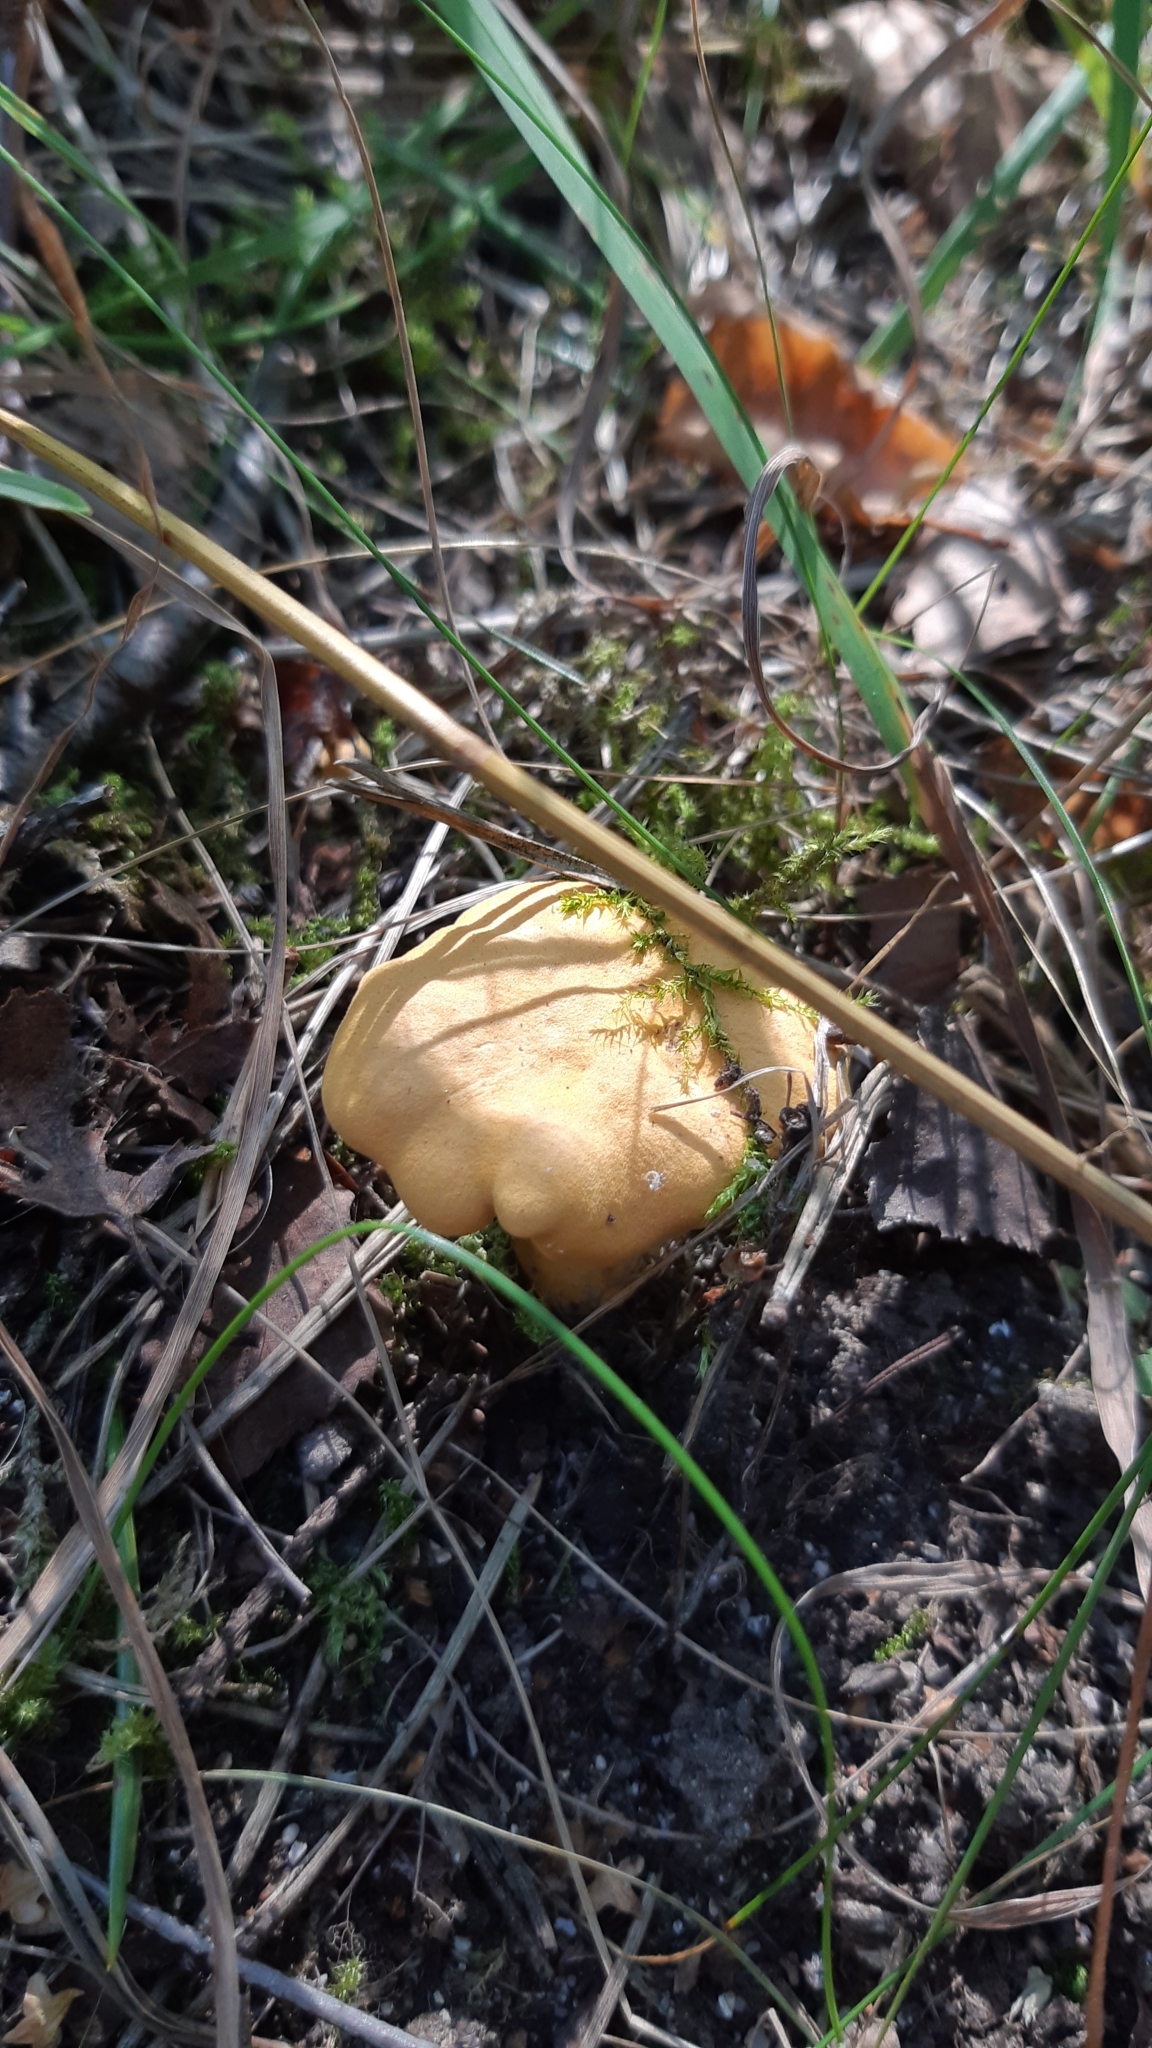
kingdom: Fungi
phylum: Basidiomycota
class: Agaricomycetes
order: Cantharellales
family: Hydnaceae
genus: Cantharellus
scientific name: Cantharellus cibarius
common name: Chanterelle
